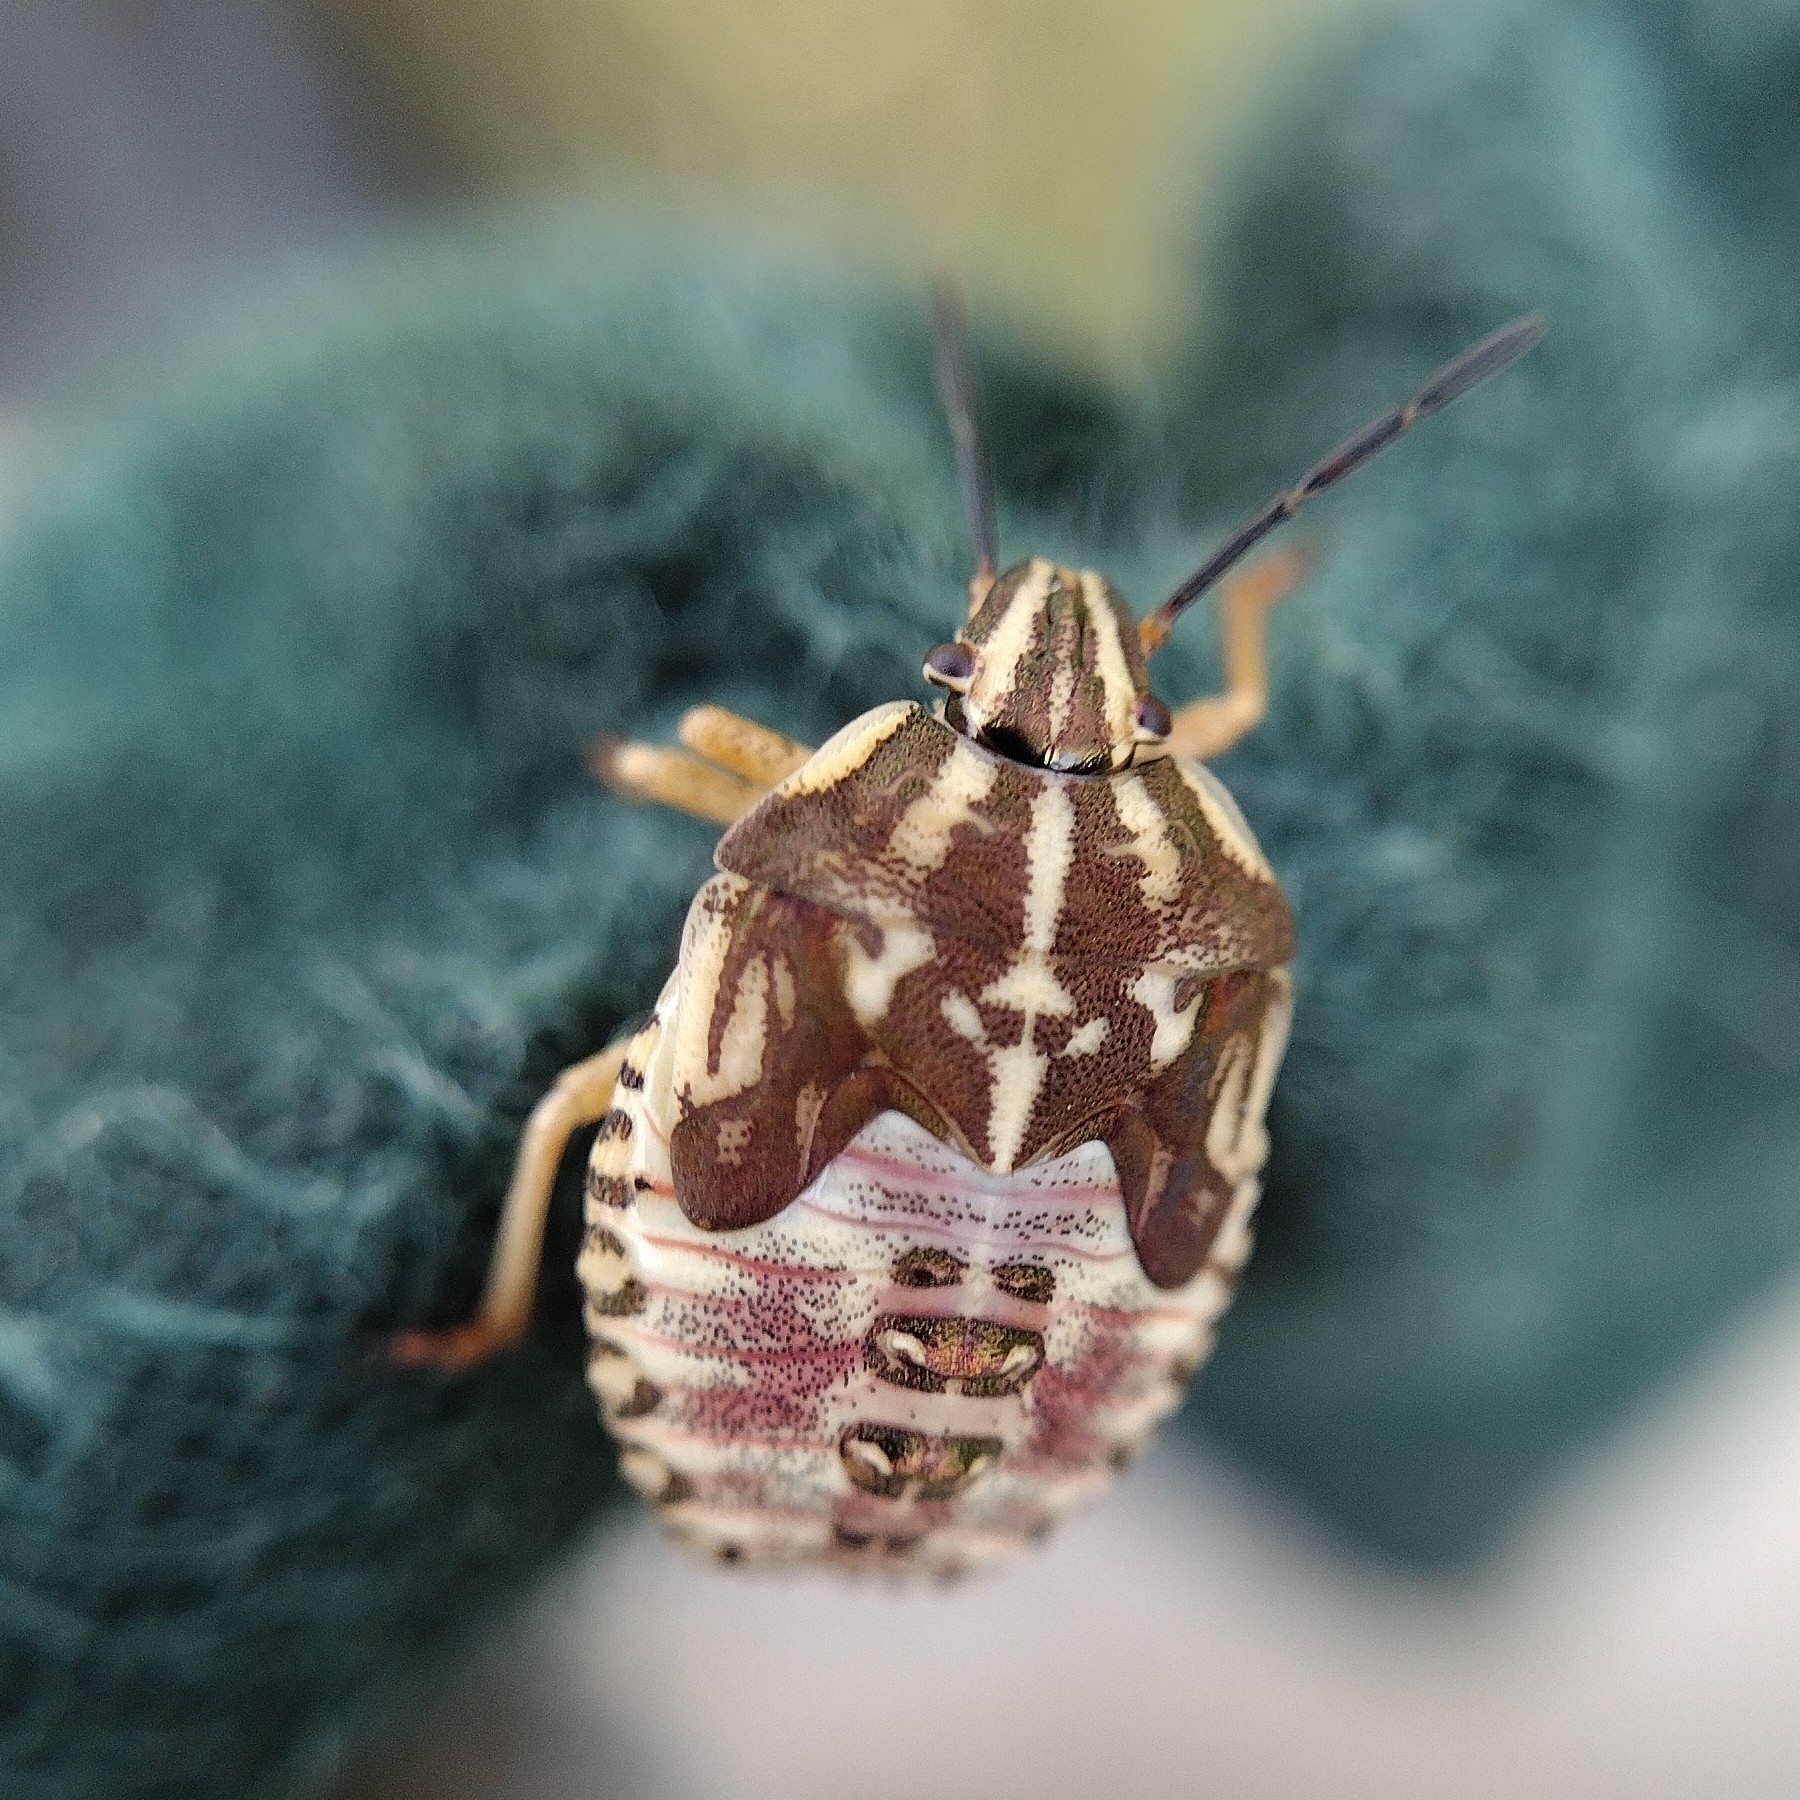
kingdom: Animalia
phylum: Arthropoda
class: Insecta
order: Hemiptera
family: Pentatomidae
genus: Carpocoris
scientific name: Carpocoris purpureipennis
